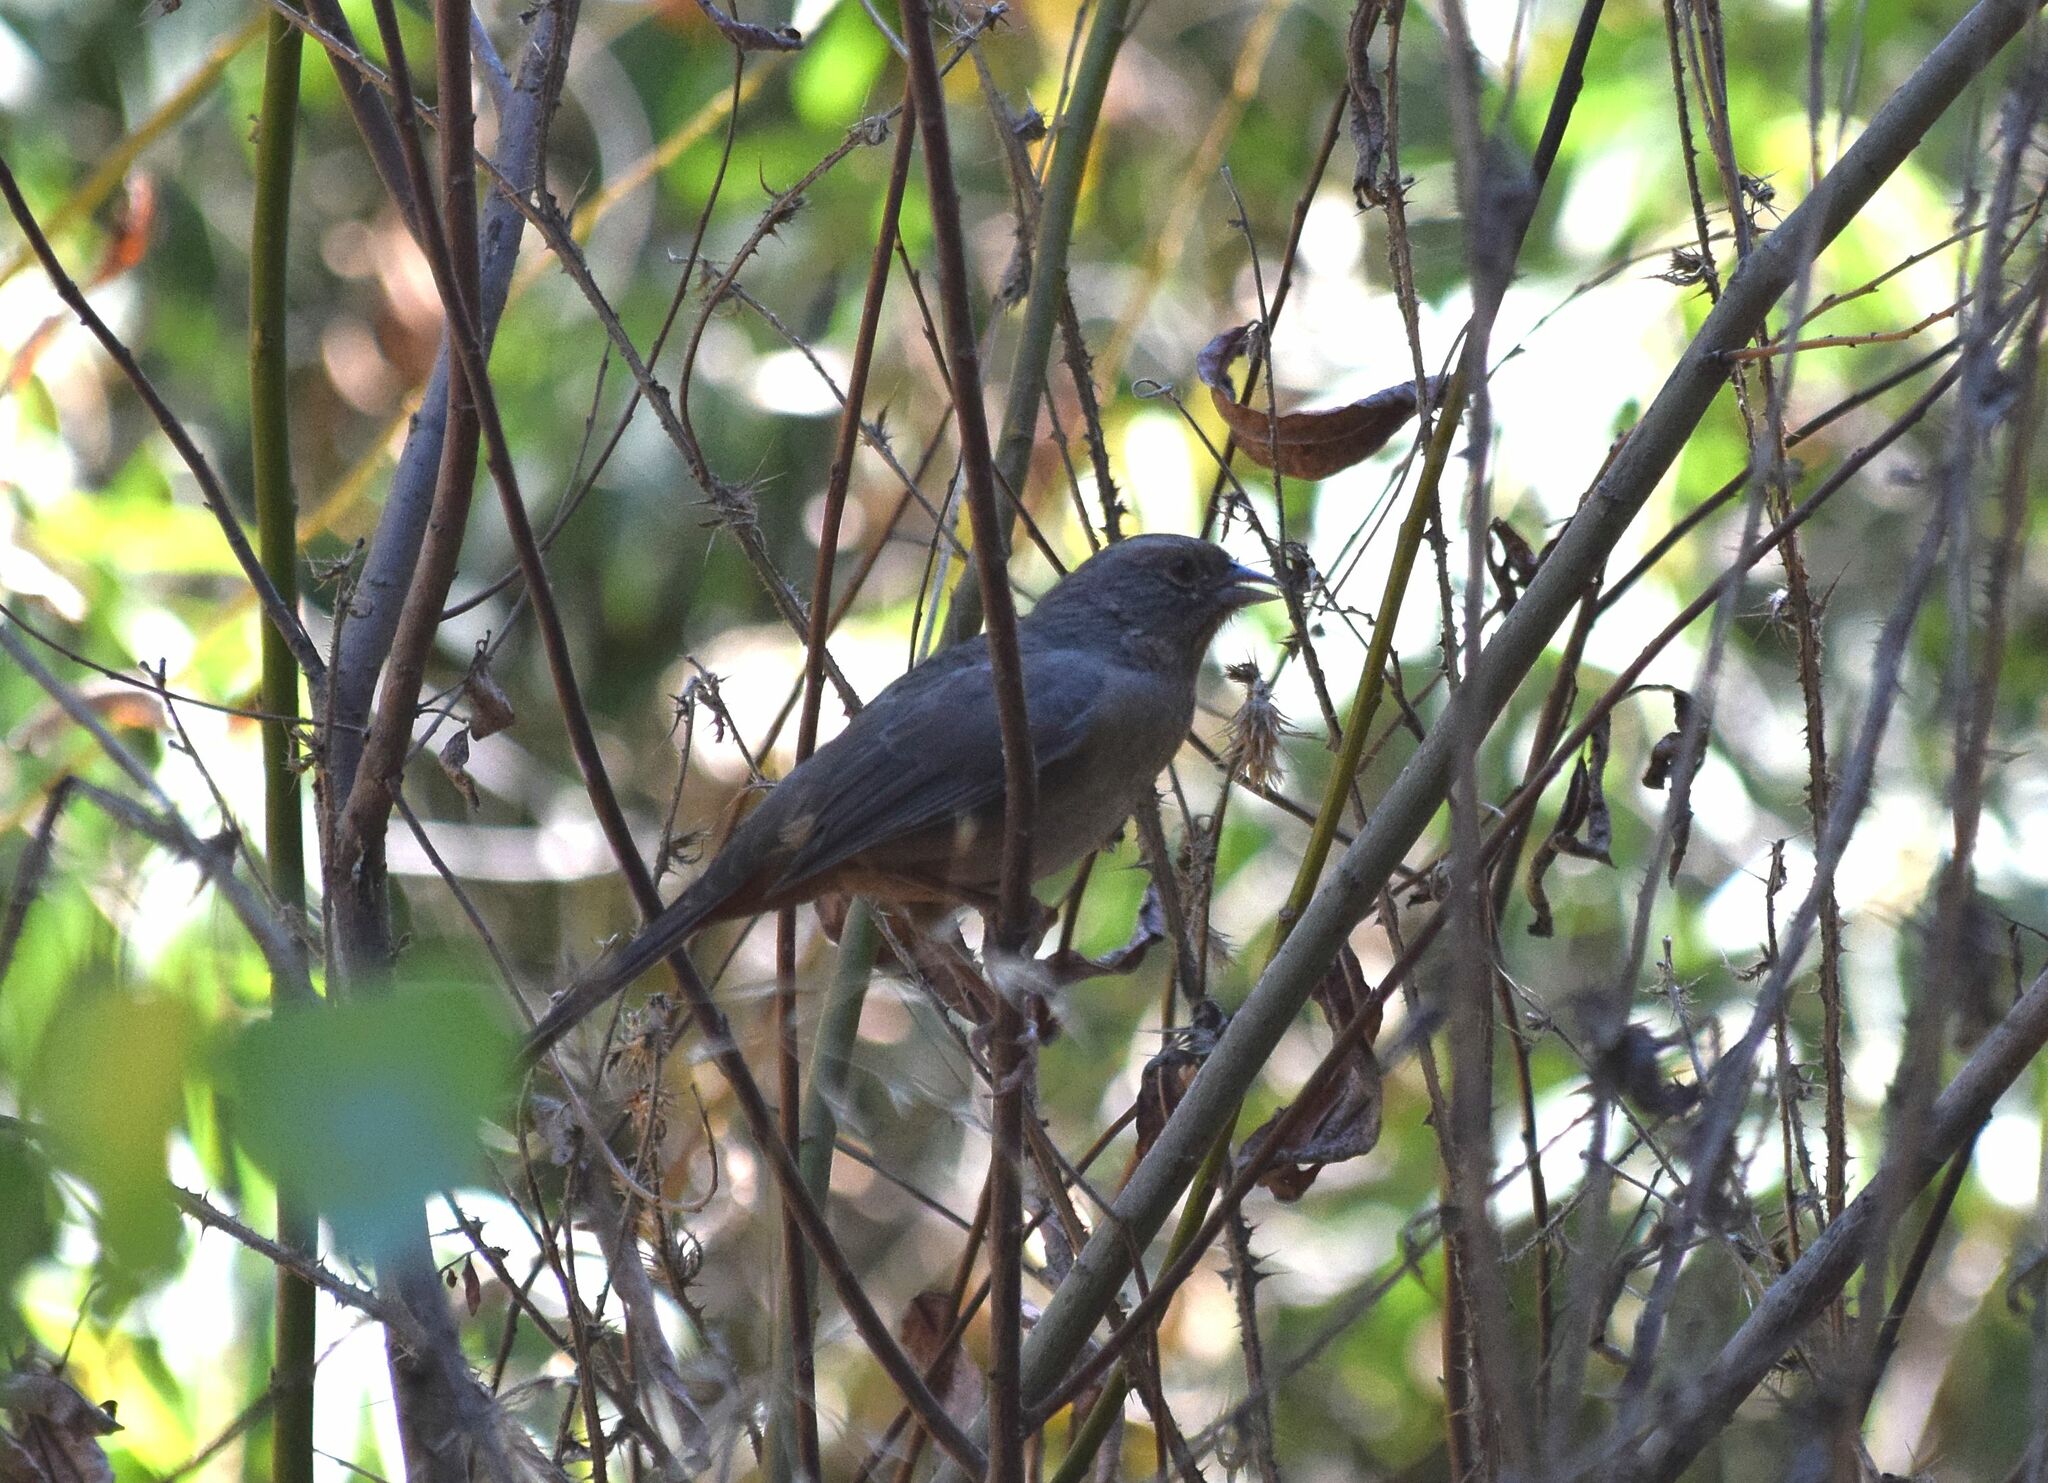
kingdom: Animalia
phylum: Chordata
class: Aves
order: Passeriformes
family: Passerellidae
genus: Melozone
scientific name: Melozone crissalis
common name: California towhee
